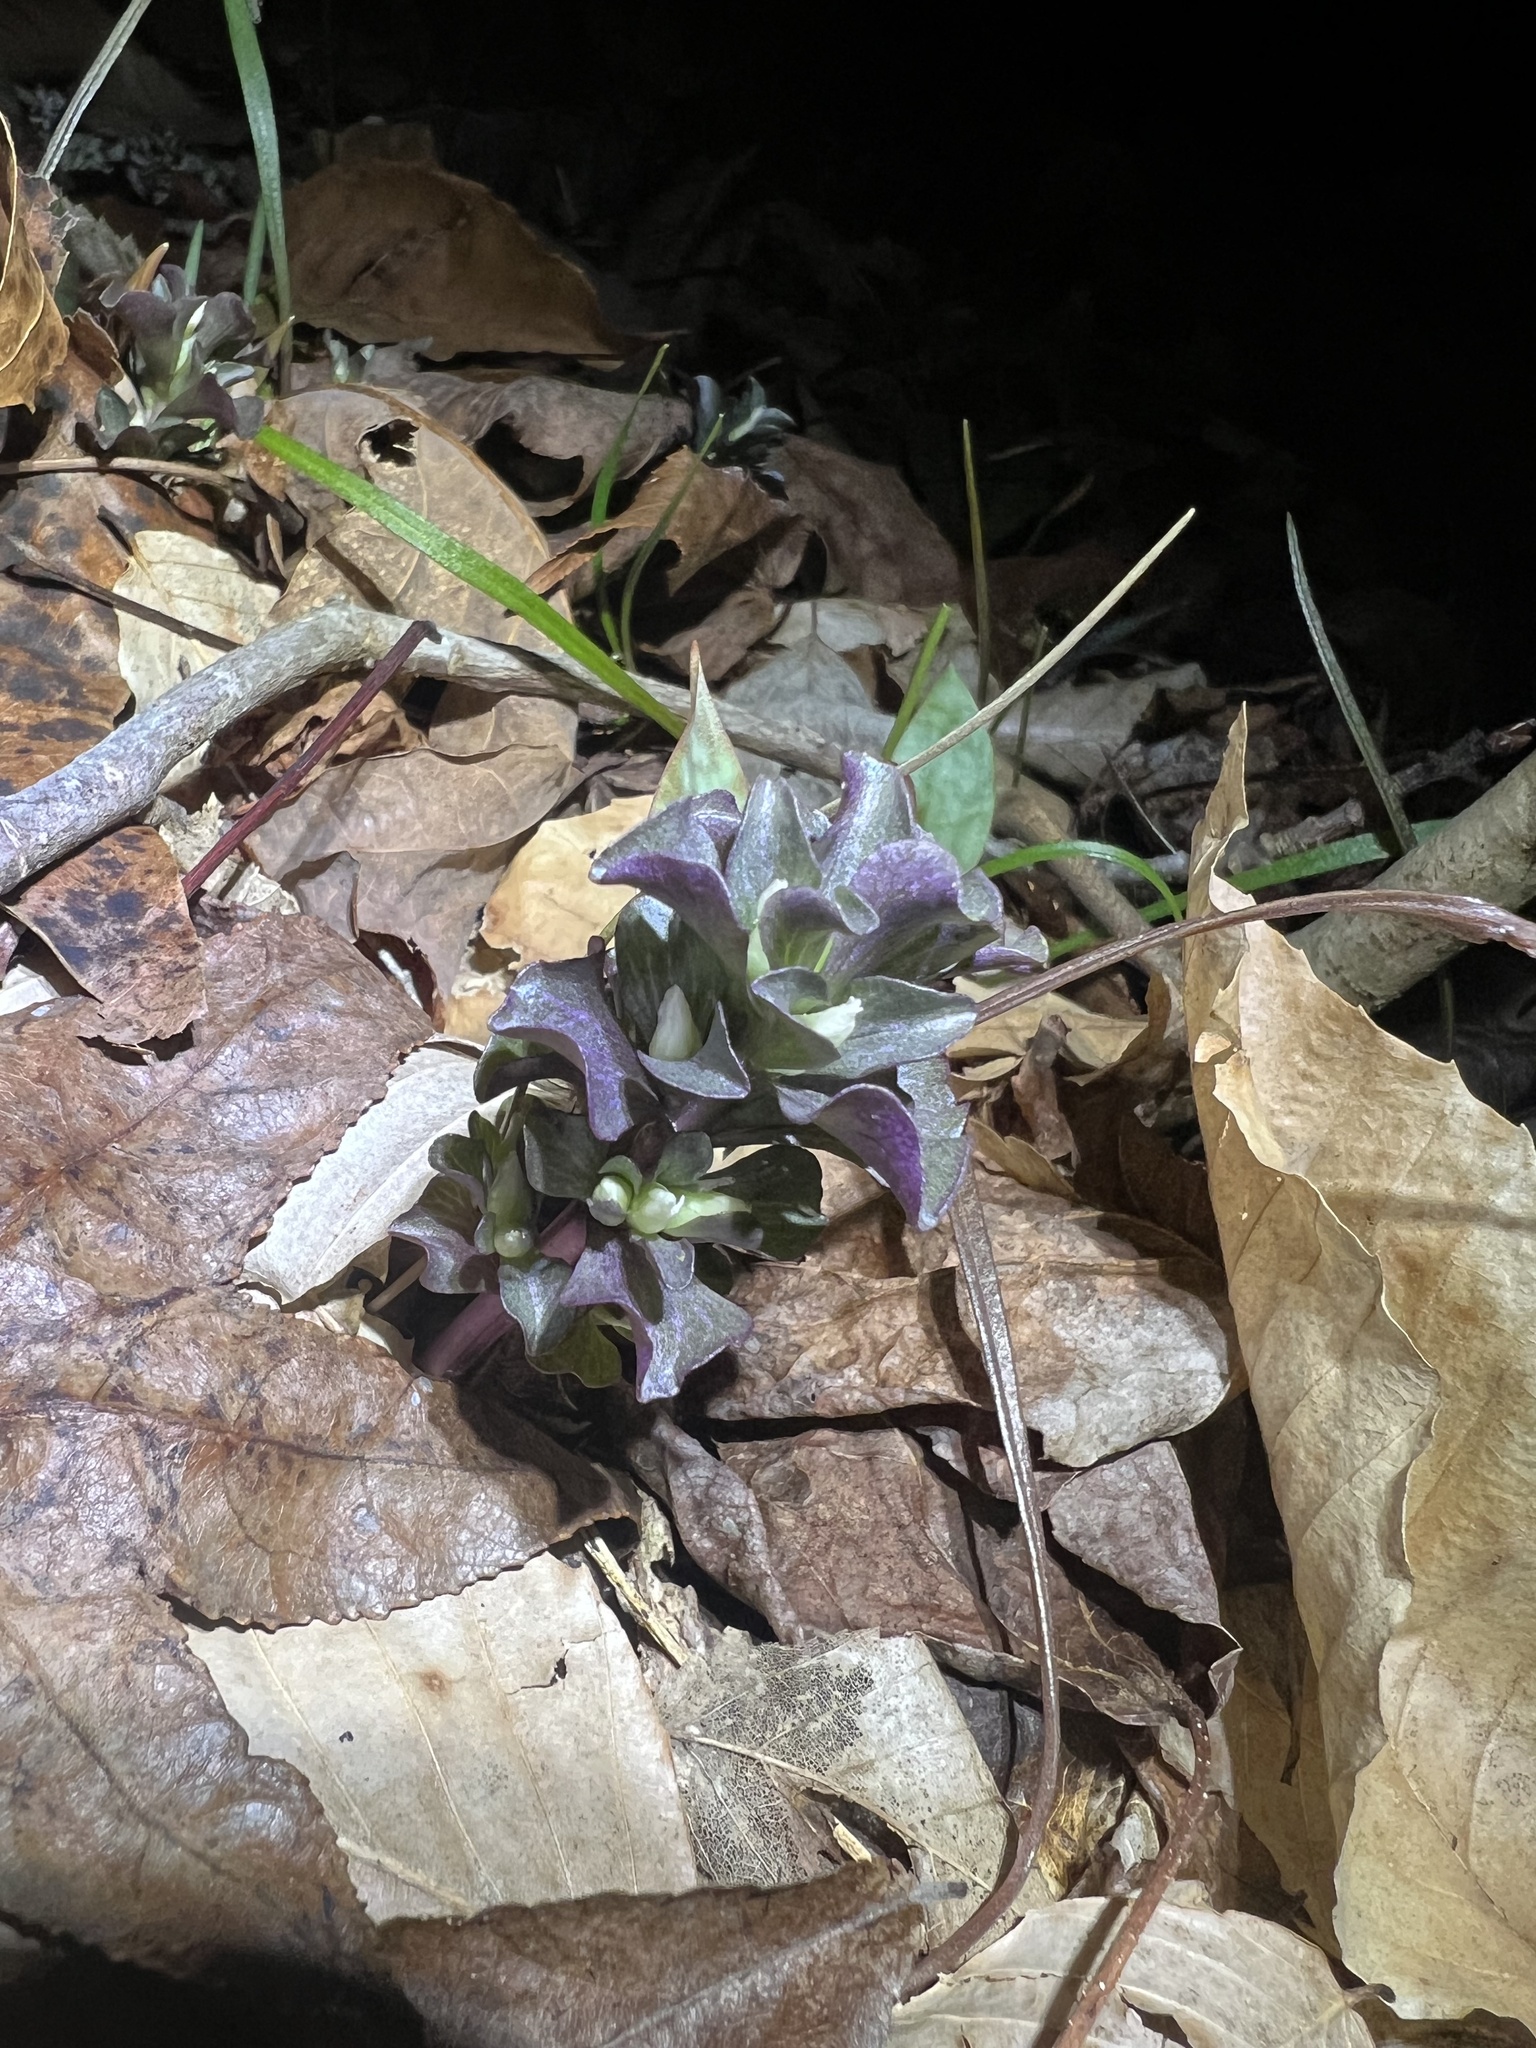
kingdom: Plantae
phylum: Tracheophyta
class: Magnoliopsida
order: Gentianales
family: Gentianaceae
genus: Obolaria
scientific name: Obolaria virginica
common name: Pennywort
